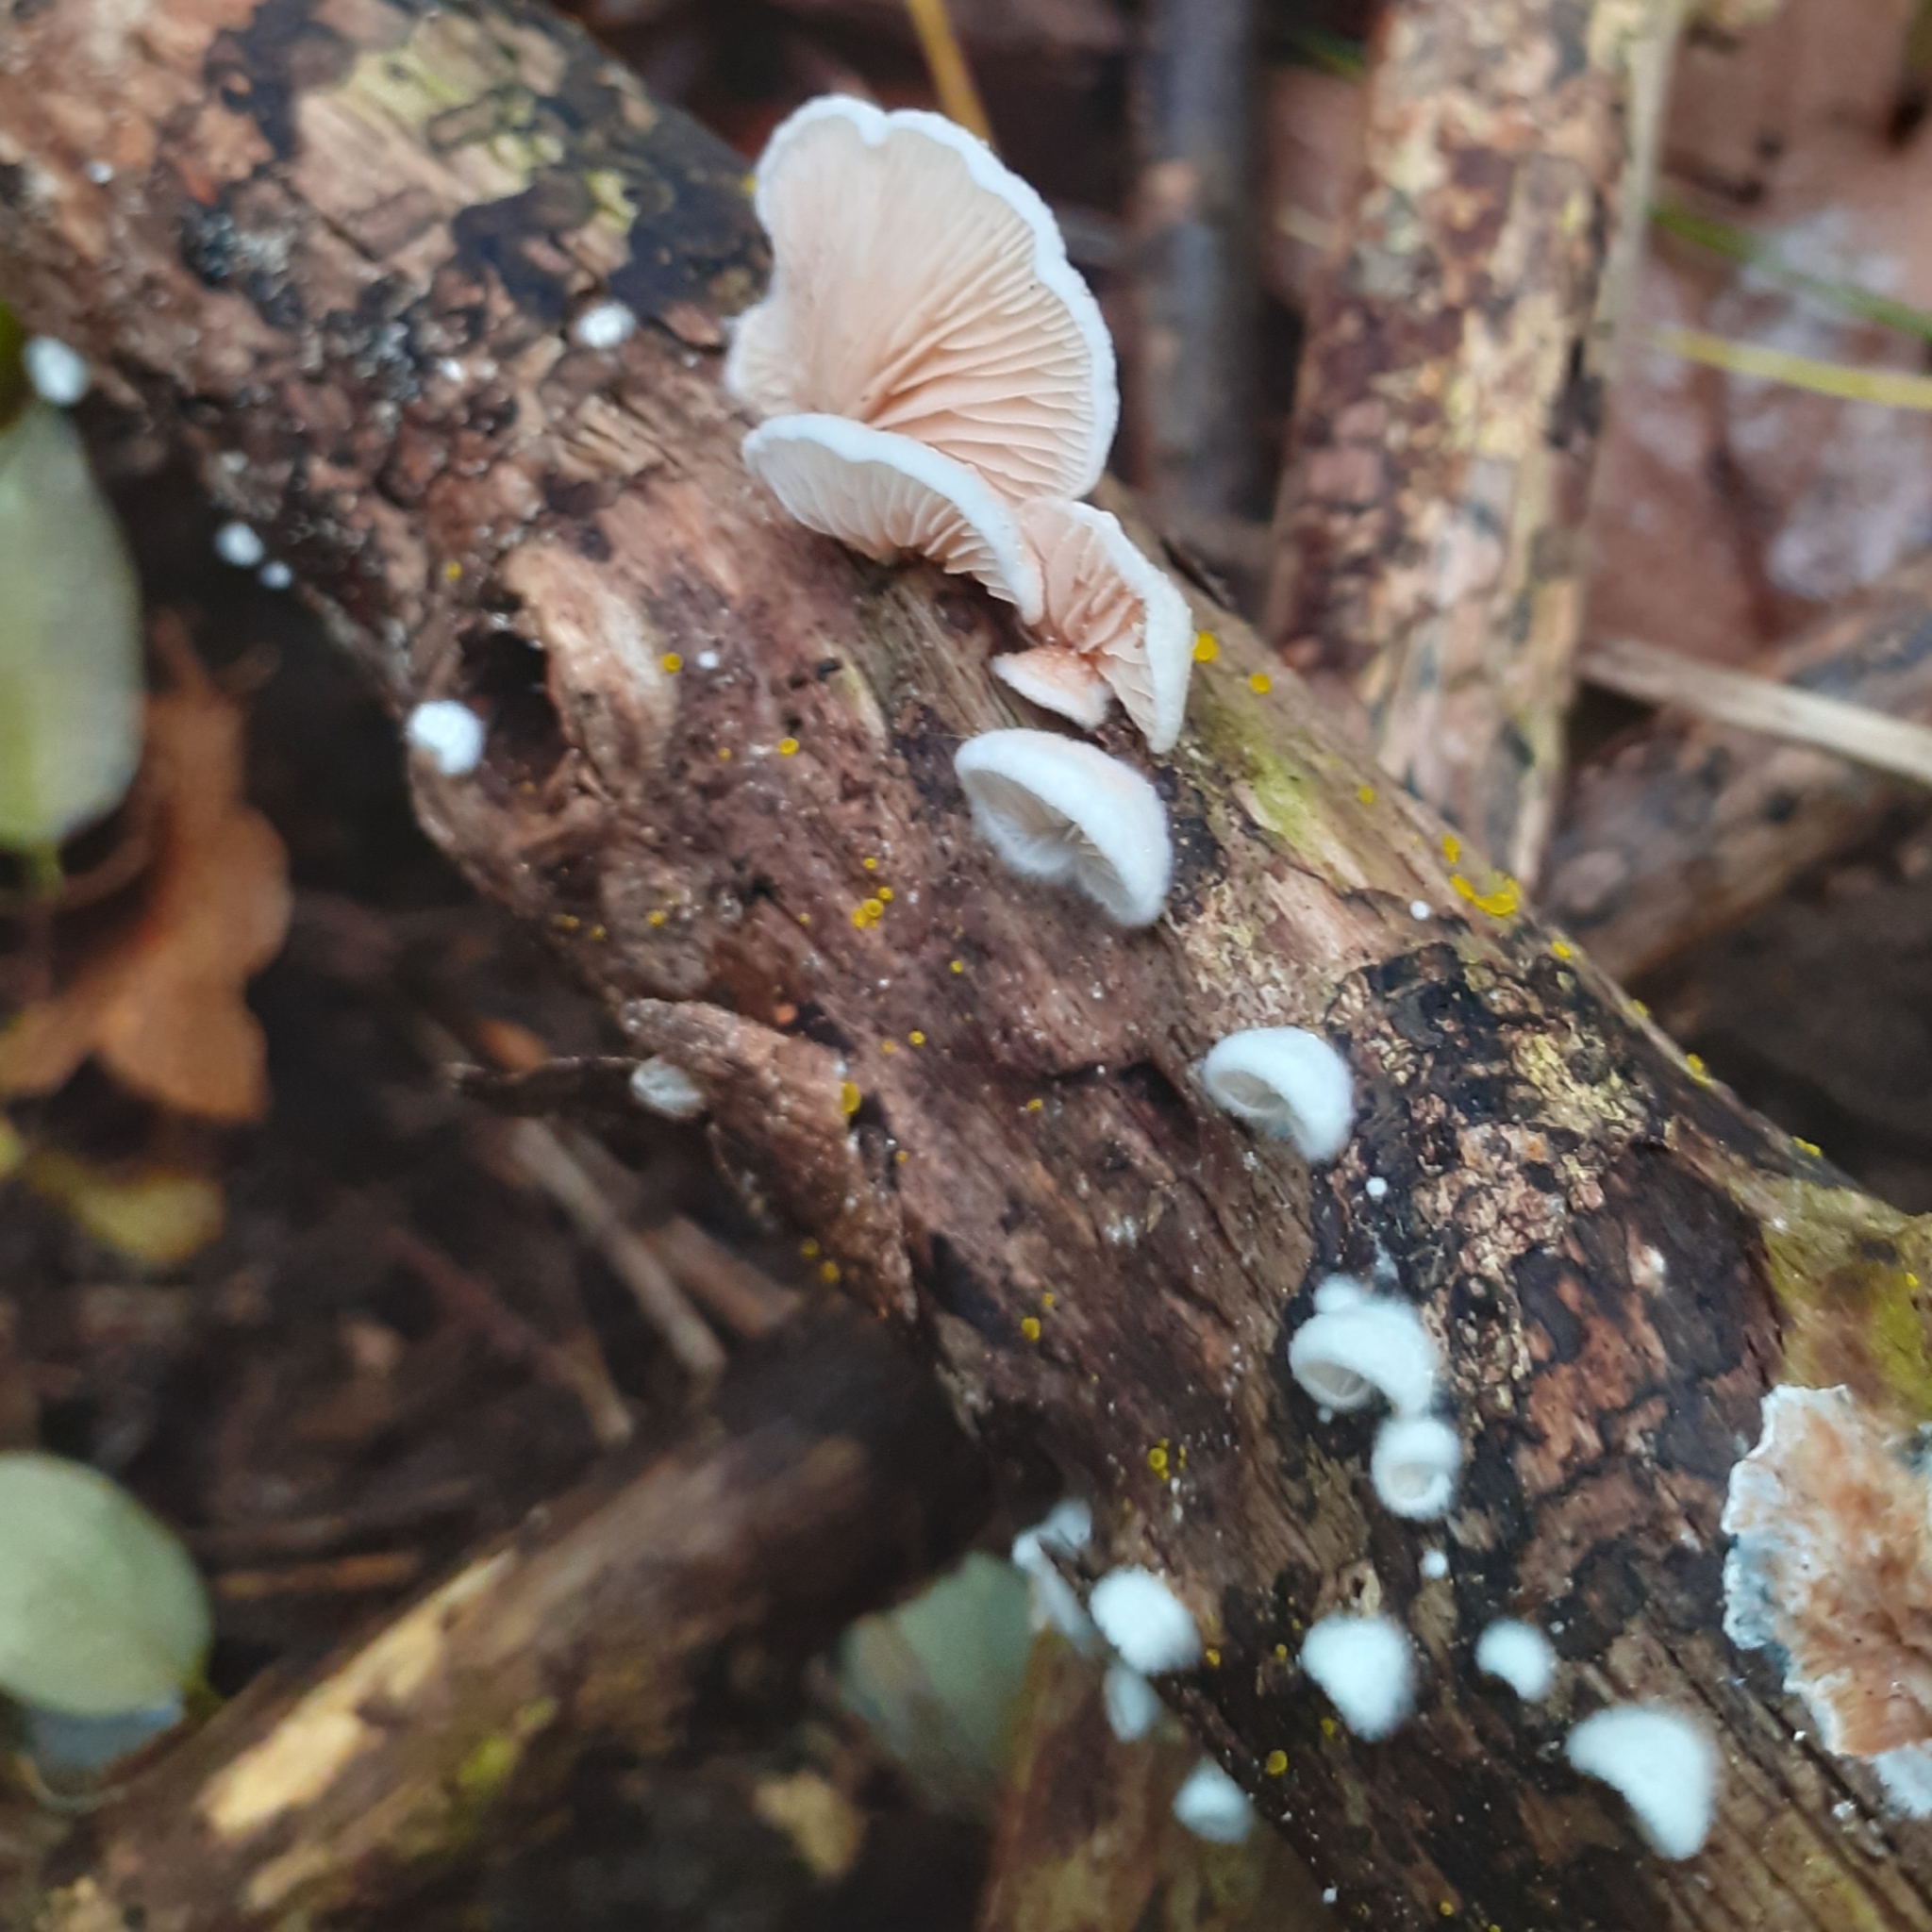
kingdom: Fungi
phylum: Basidiomycota
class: Agaricomycetes
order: Agaricales
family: Crepidotaceae
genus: Crepidotus
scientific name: Crepidotus mollis
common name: Peeling oysterling
